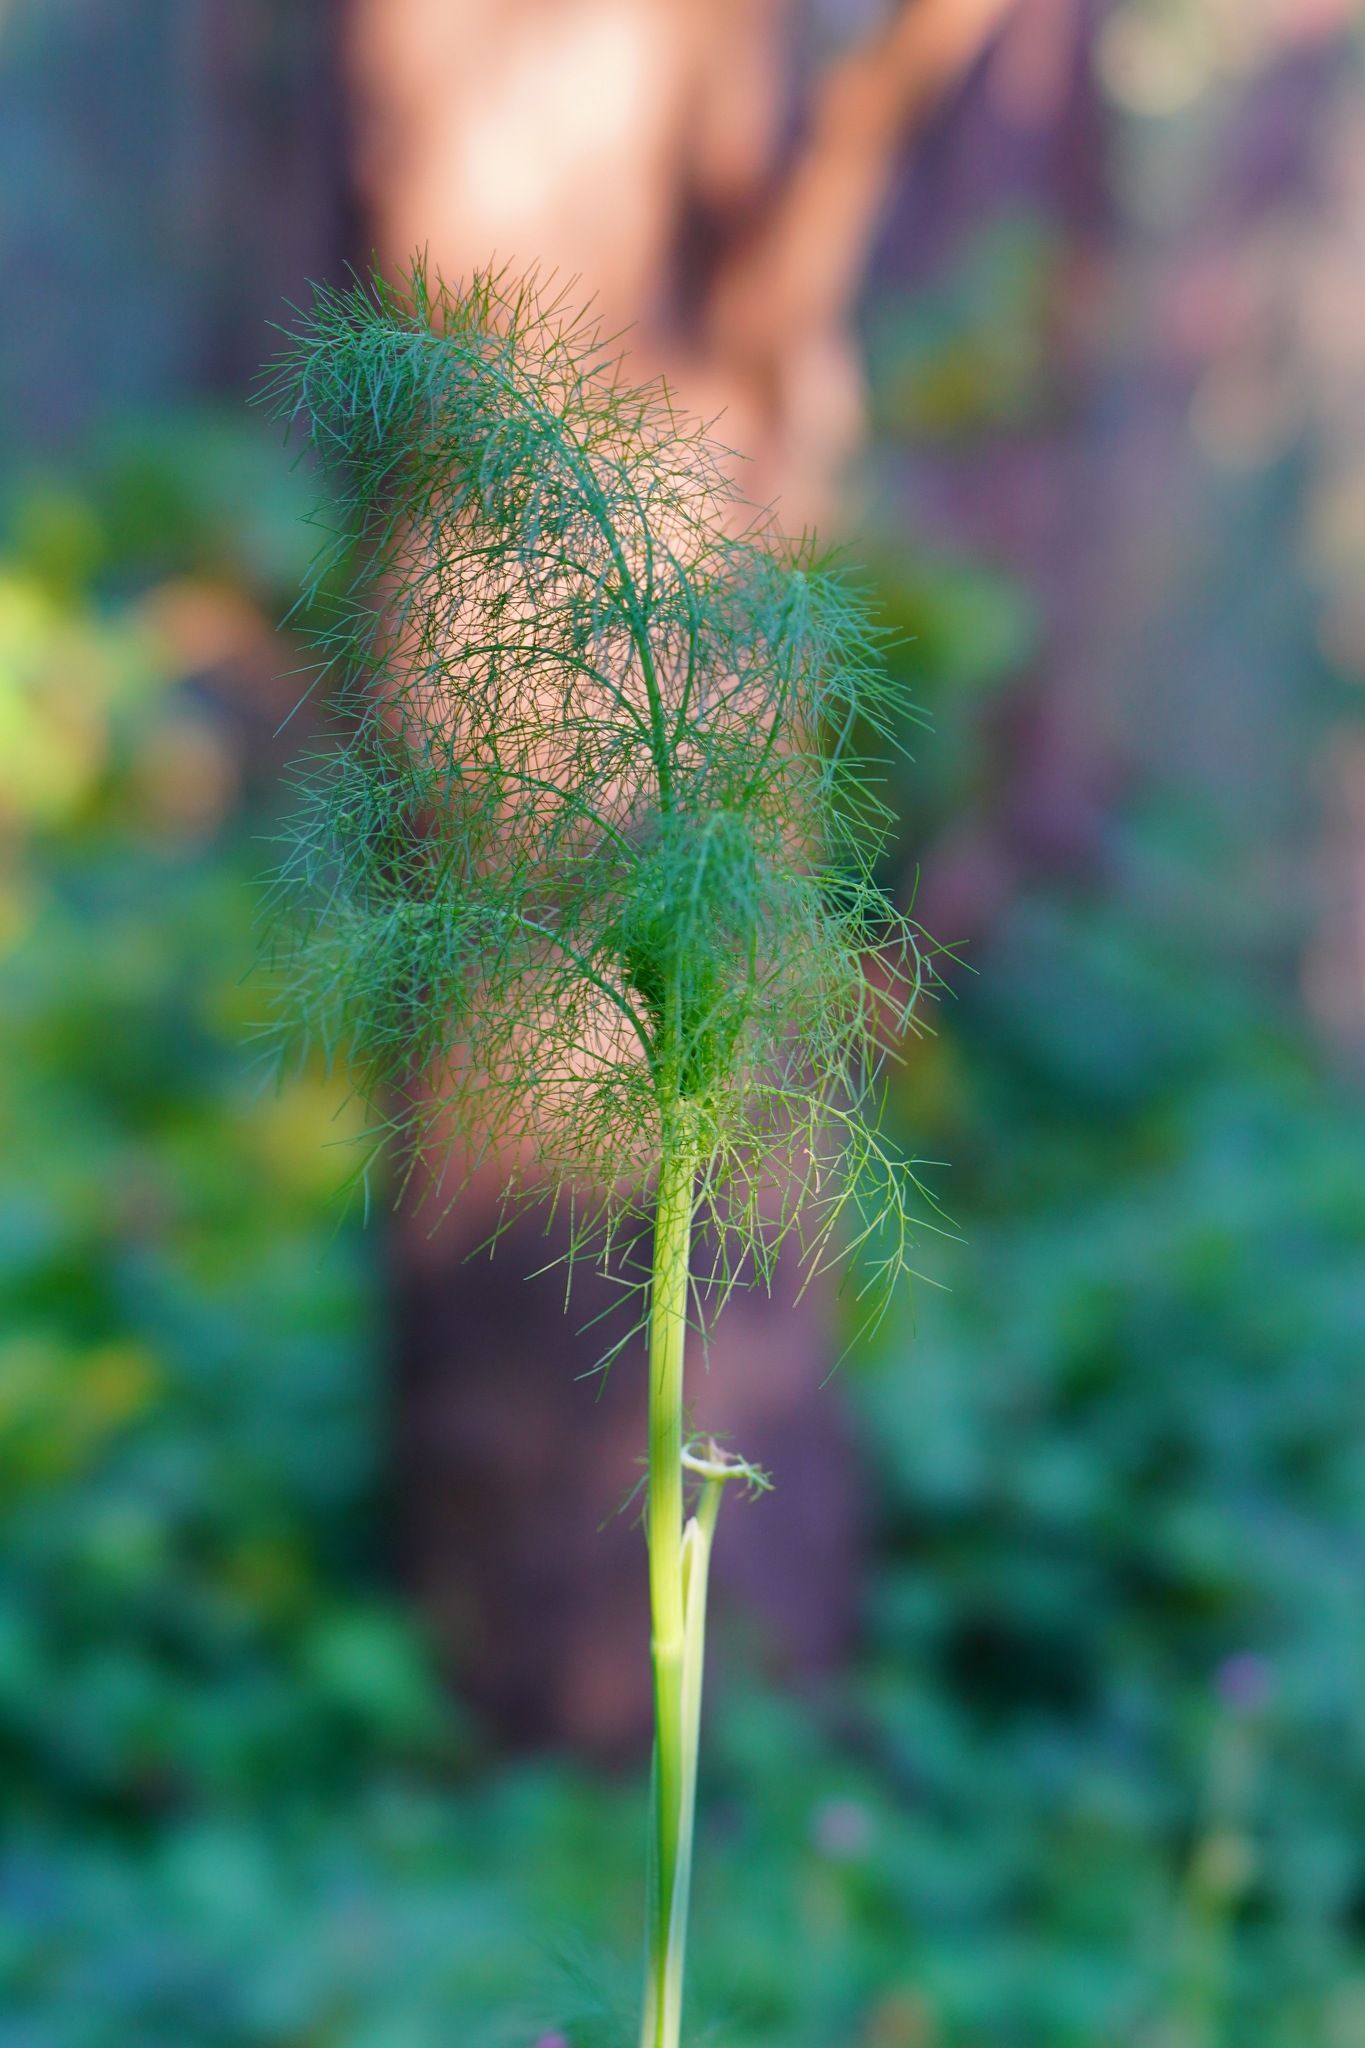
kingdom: Plantae
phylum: Tracheophyta
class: Magnoliopsida
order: Apiales
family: Apiaceae
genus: Foeniculum
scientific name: Foeniculum vulgare
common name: Fennel
